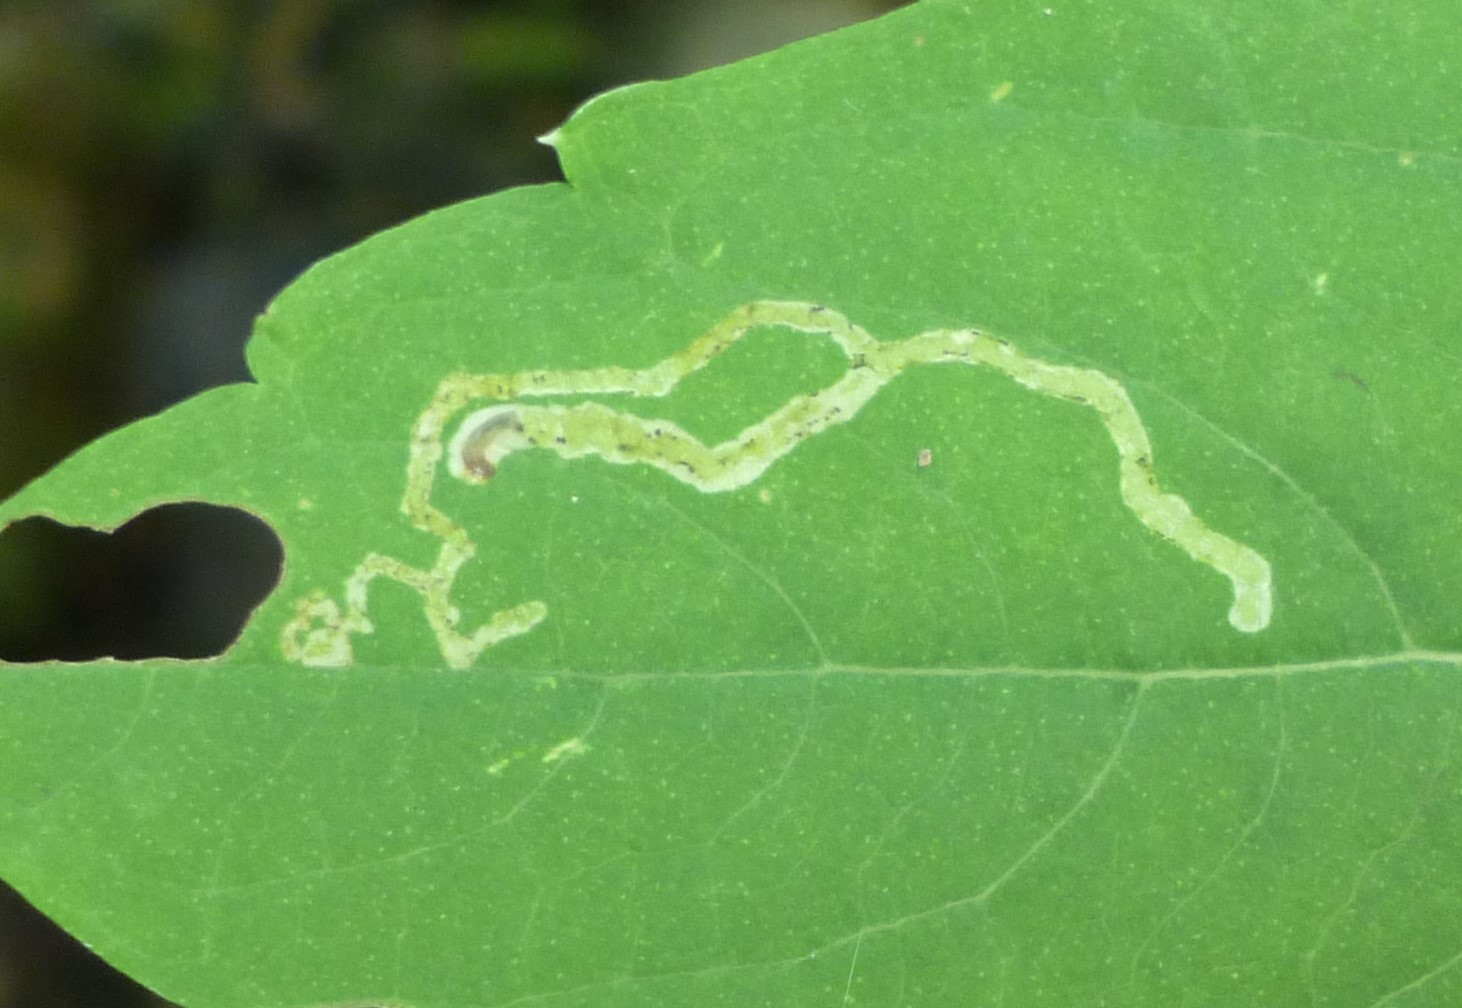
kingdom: Animalia
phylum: Arthropoda
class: Insecta
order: Diptera
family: Agromyzidae
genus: Phytoliriomyza
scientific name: Phytoliriomyza melampyga
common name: Jewelweed leaf-miner fly
